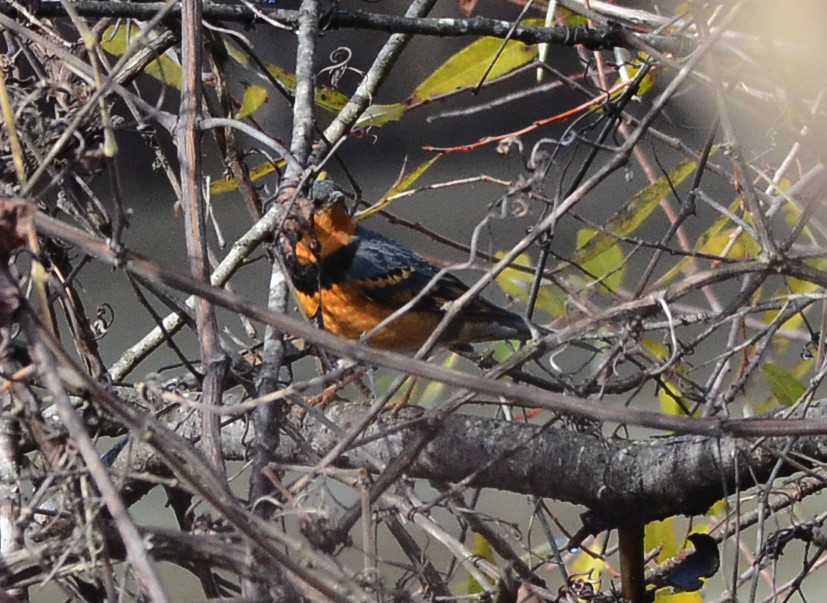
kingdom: Animalia
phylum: Chordata
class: Aves
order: Passeriformes
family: Turdidae
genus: Ixoreus
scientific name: Ixoreus naevius
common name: Varied thrush
